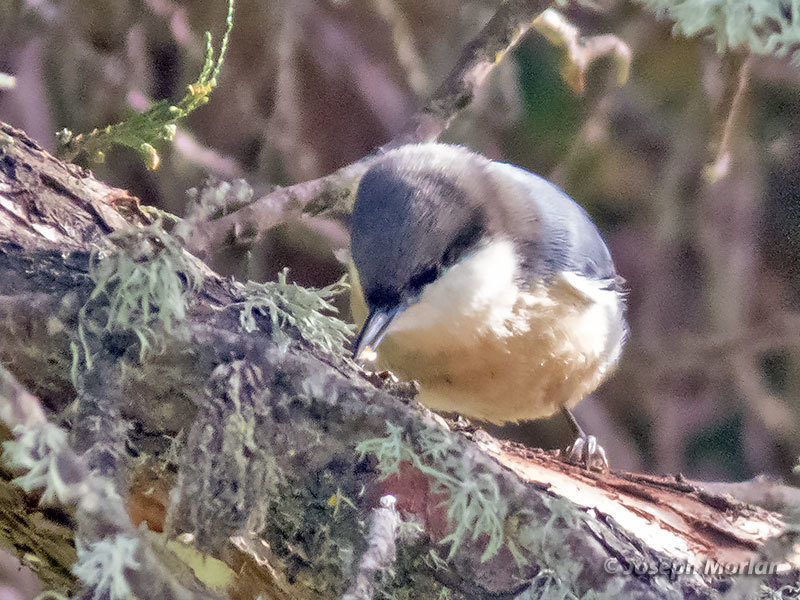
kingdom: Animalia
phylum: Chordata
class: Aves
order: Passeriformes
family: Sittidae
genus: Sitta
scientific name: Sitta pygmaea
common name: Pygmy nuthatch
